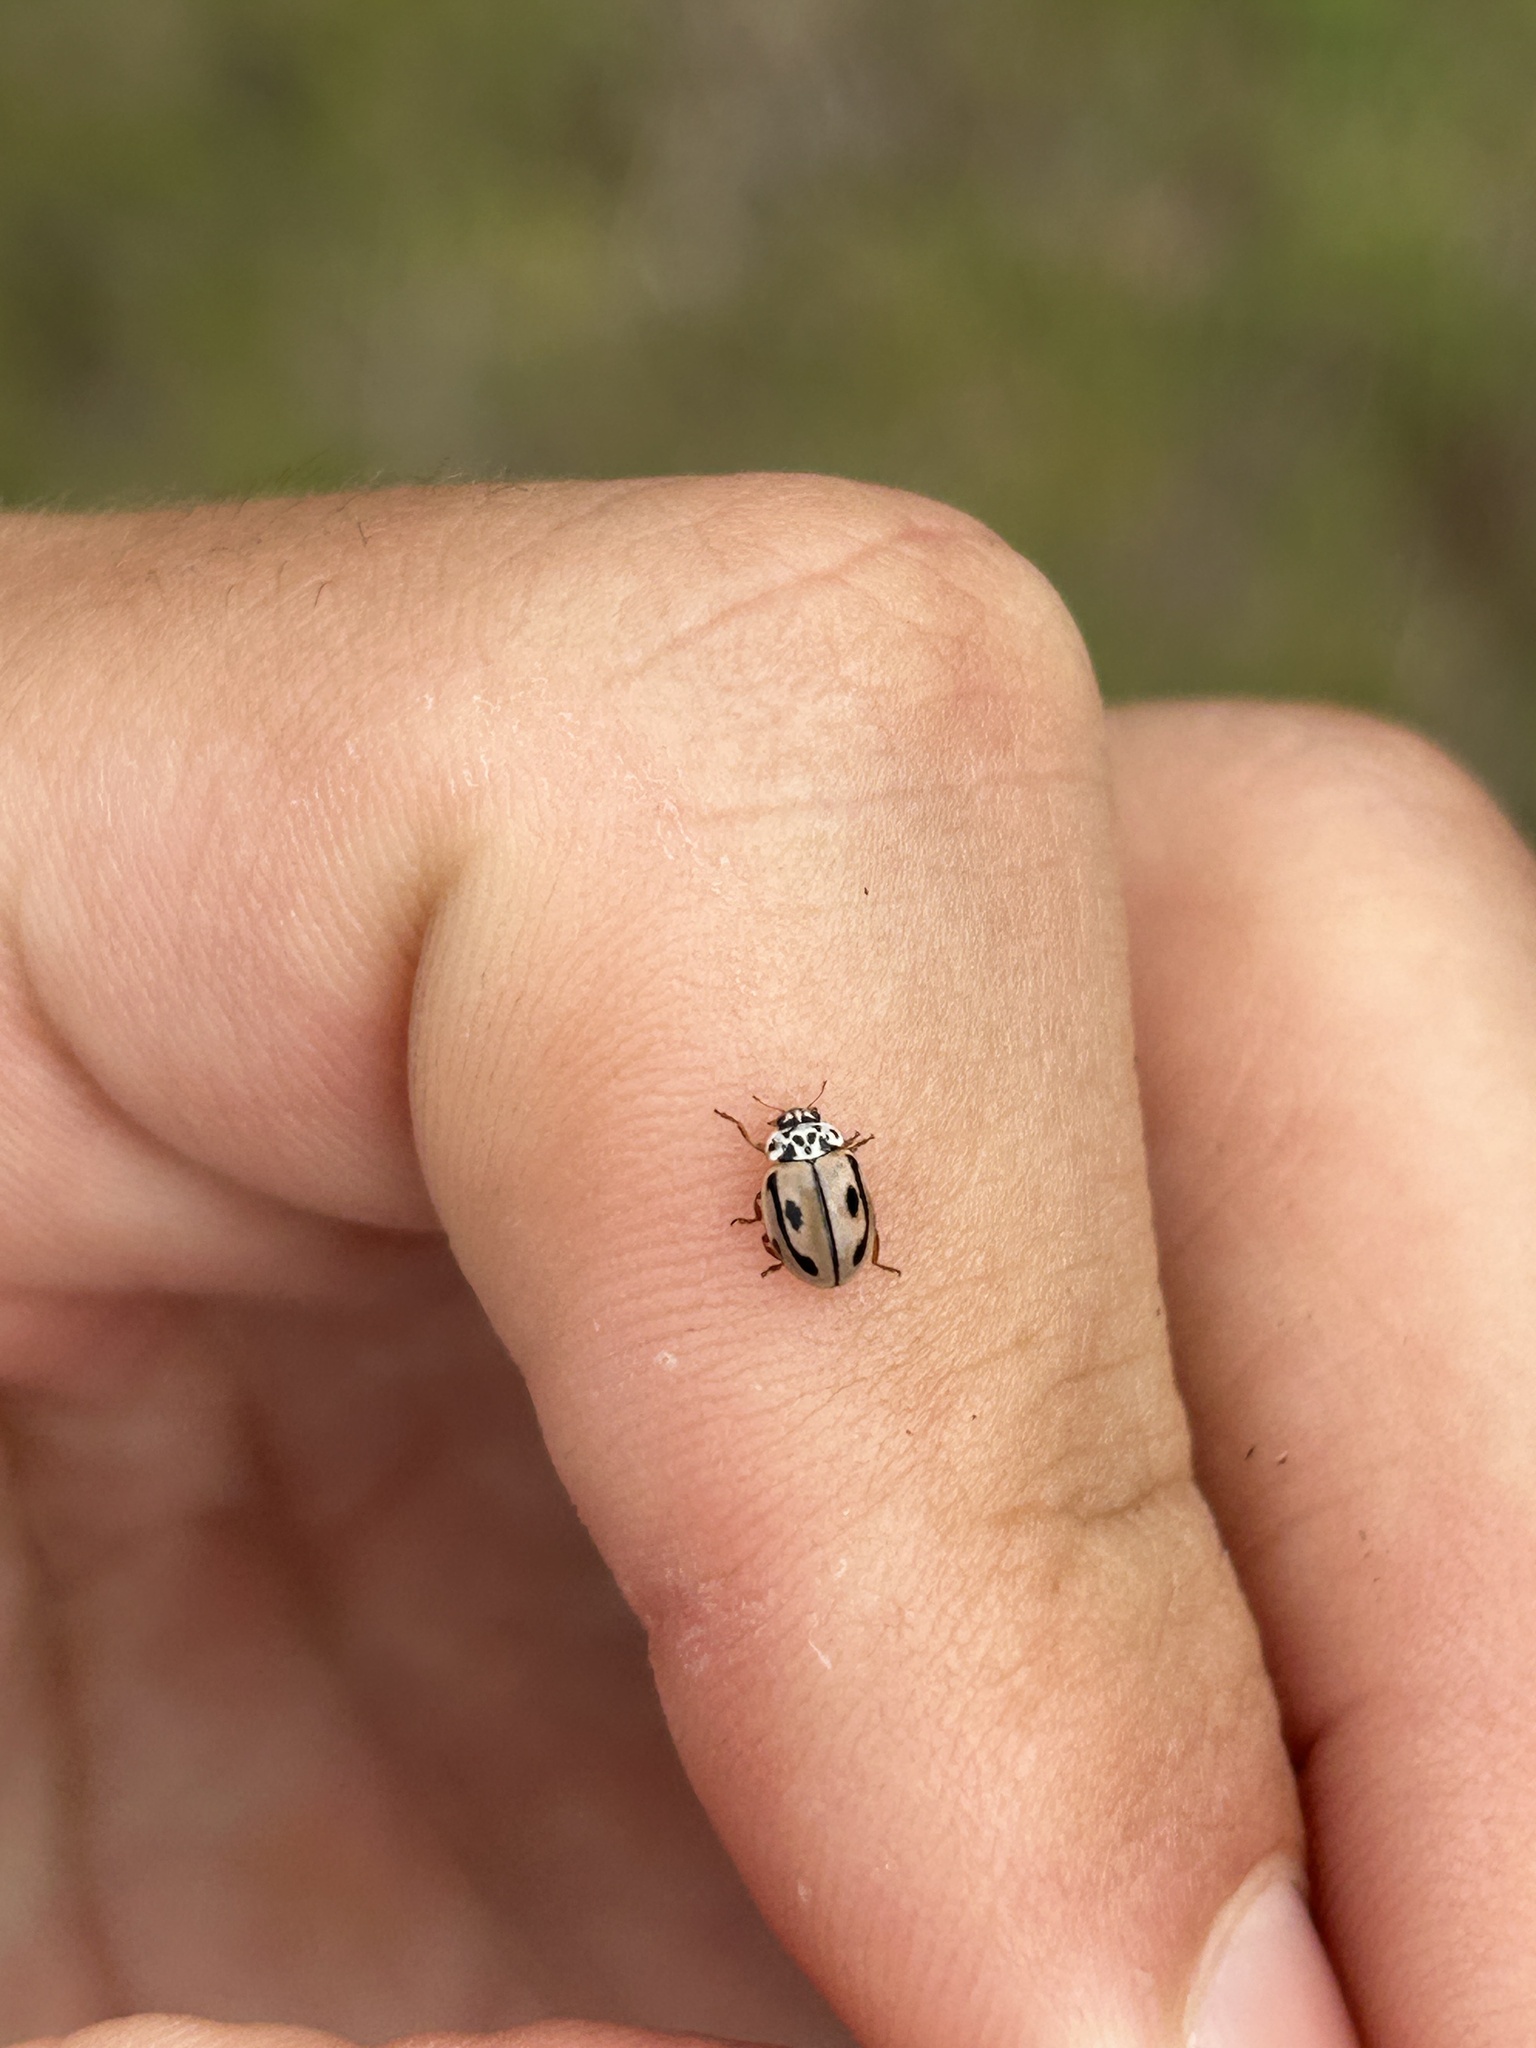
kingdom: Animalia
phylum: Arthropoda
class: Insecta
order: Coleoptera
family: Coccinellidae
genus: Mulsantina
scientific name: Mulsantina hudsonica
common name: Hudsonian ladybird
